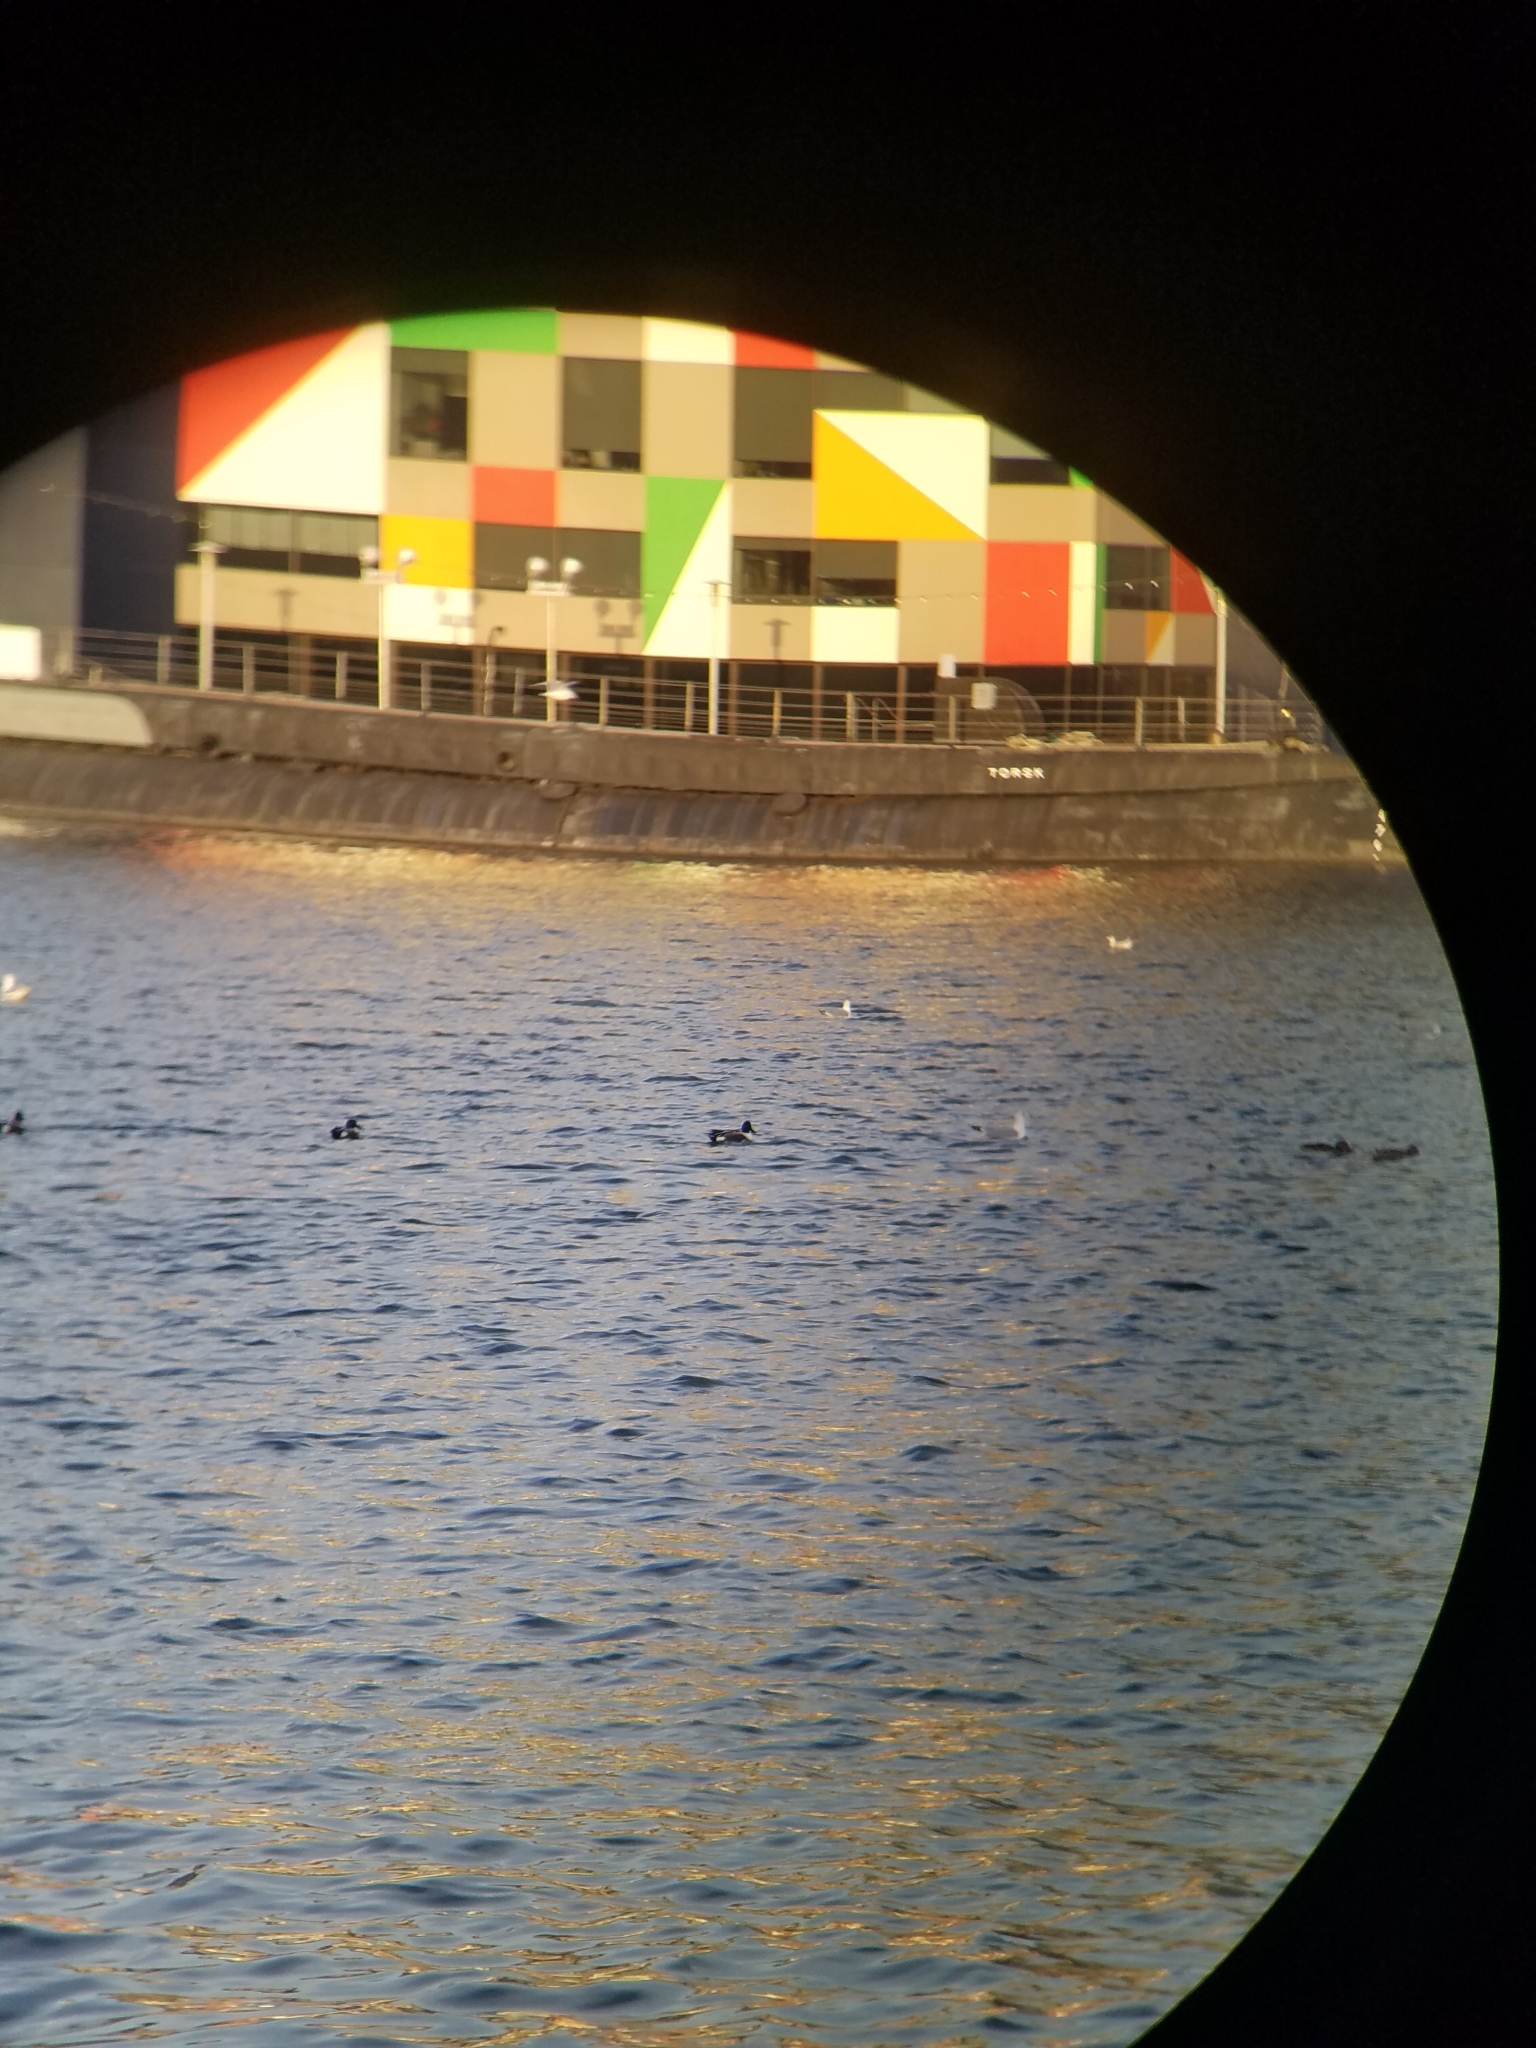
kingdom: Animalia
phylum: Chordata
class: Aves
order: Anseriformes
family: Anatidae
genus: Spatula
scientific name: Spatula clypeata
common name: Northern shoveler
